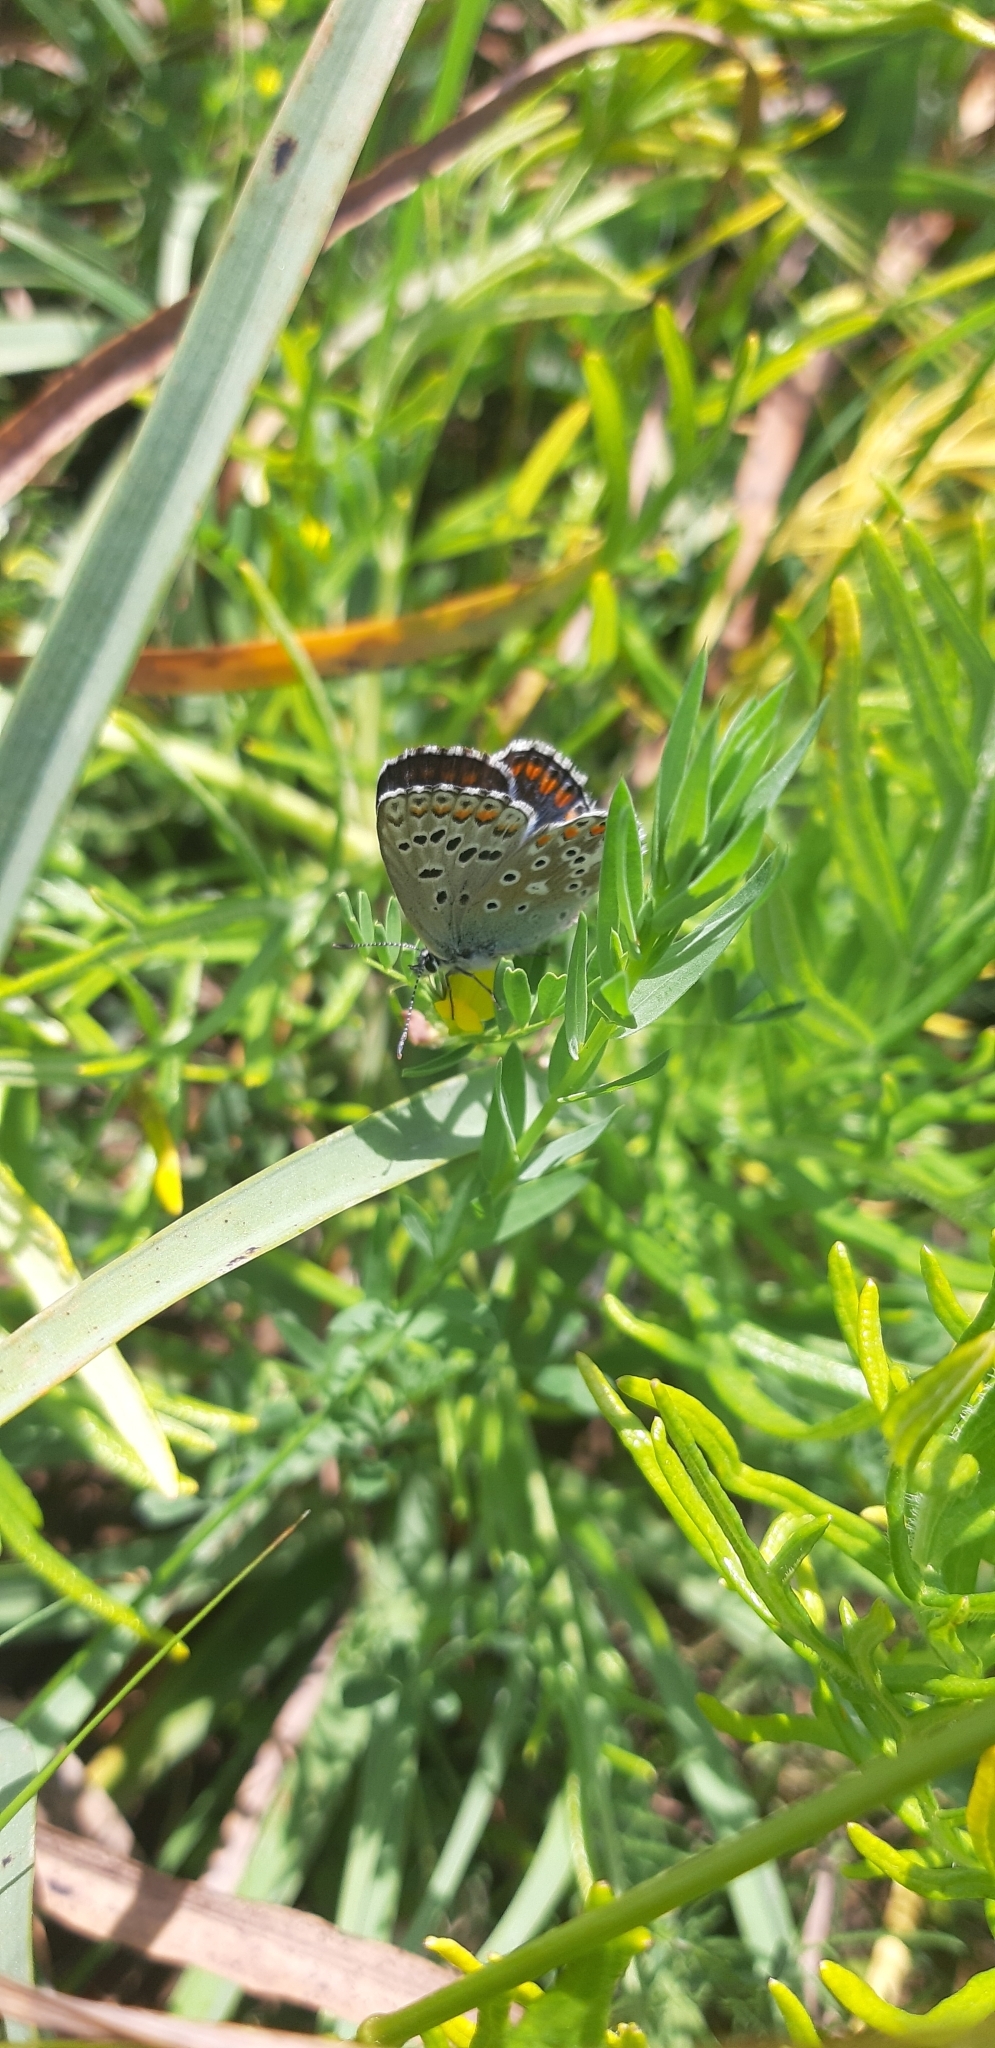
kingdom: Animalia
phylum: Arthropoda
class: Insecta
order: Lepidoptera
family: Lycaenidae
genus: Lysandra
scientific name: Lysandra bellargus
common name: Adonis blue
